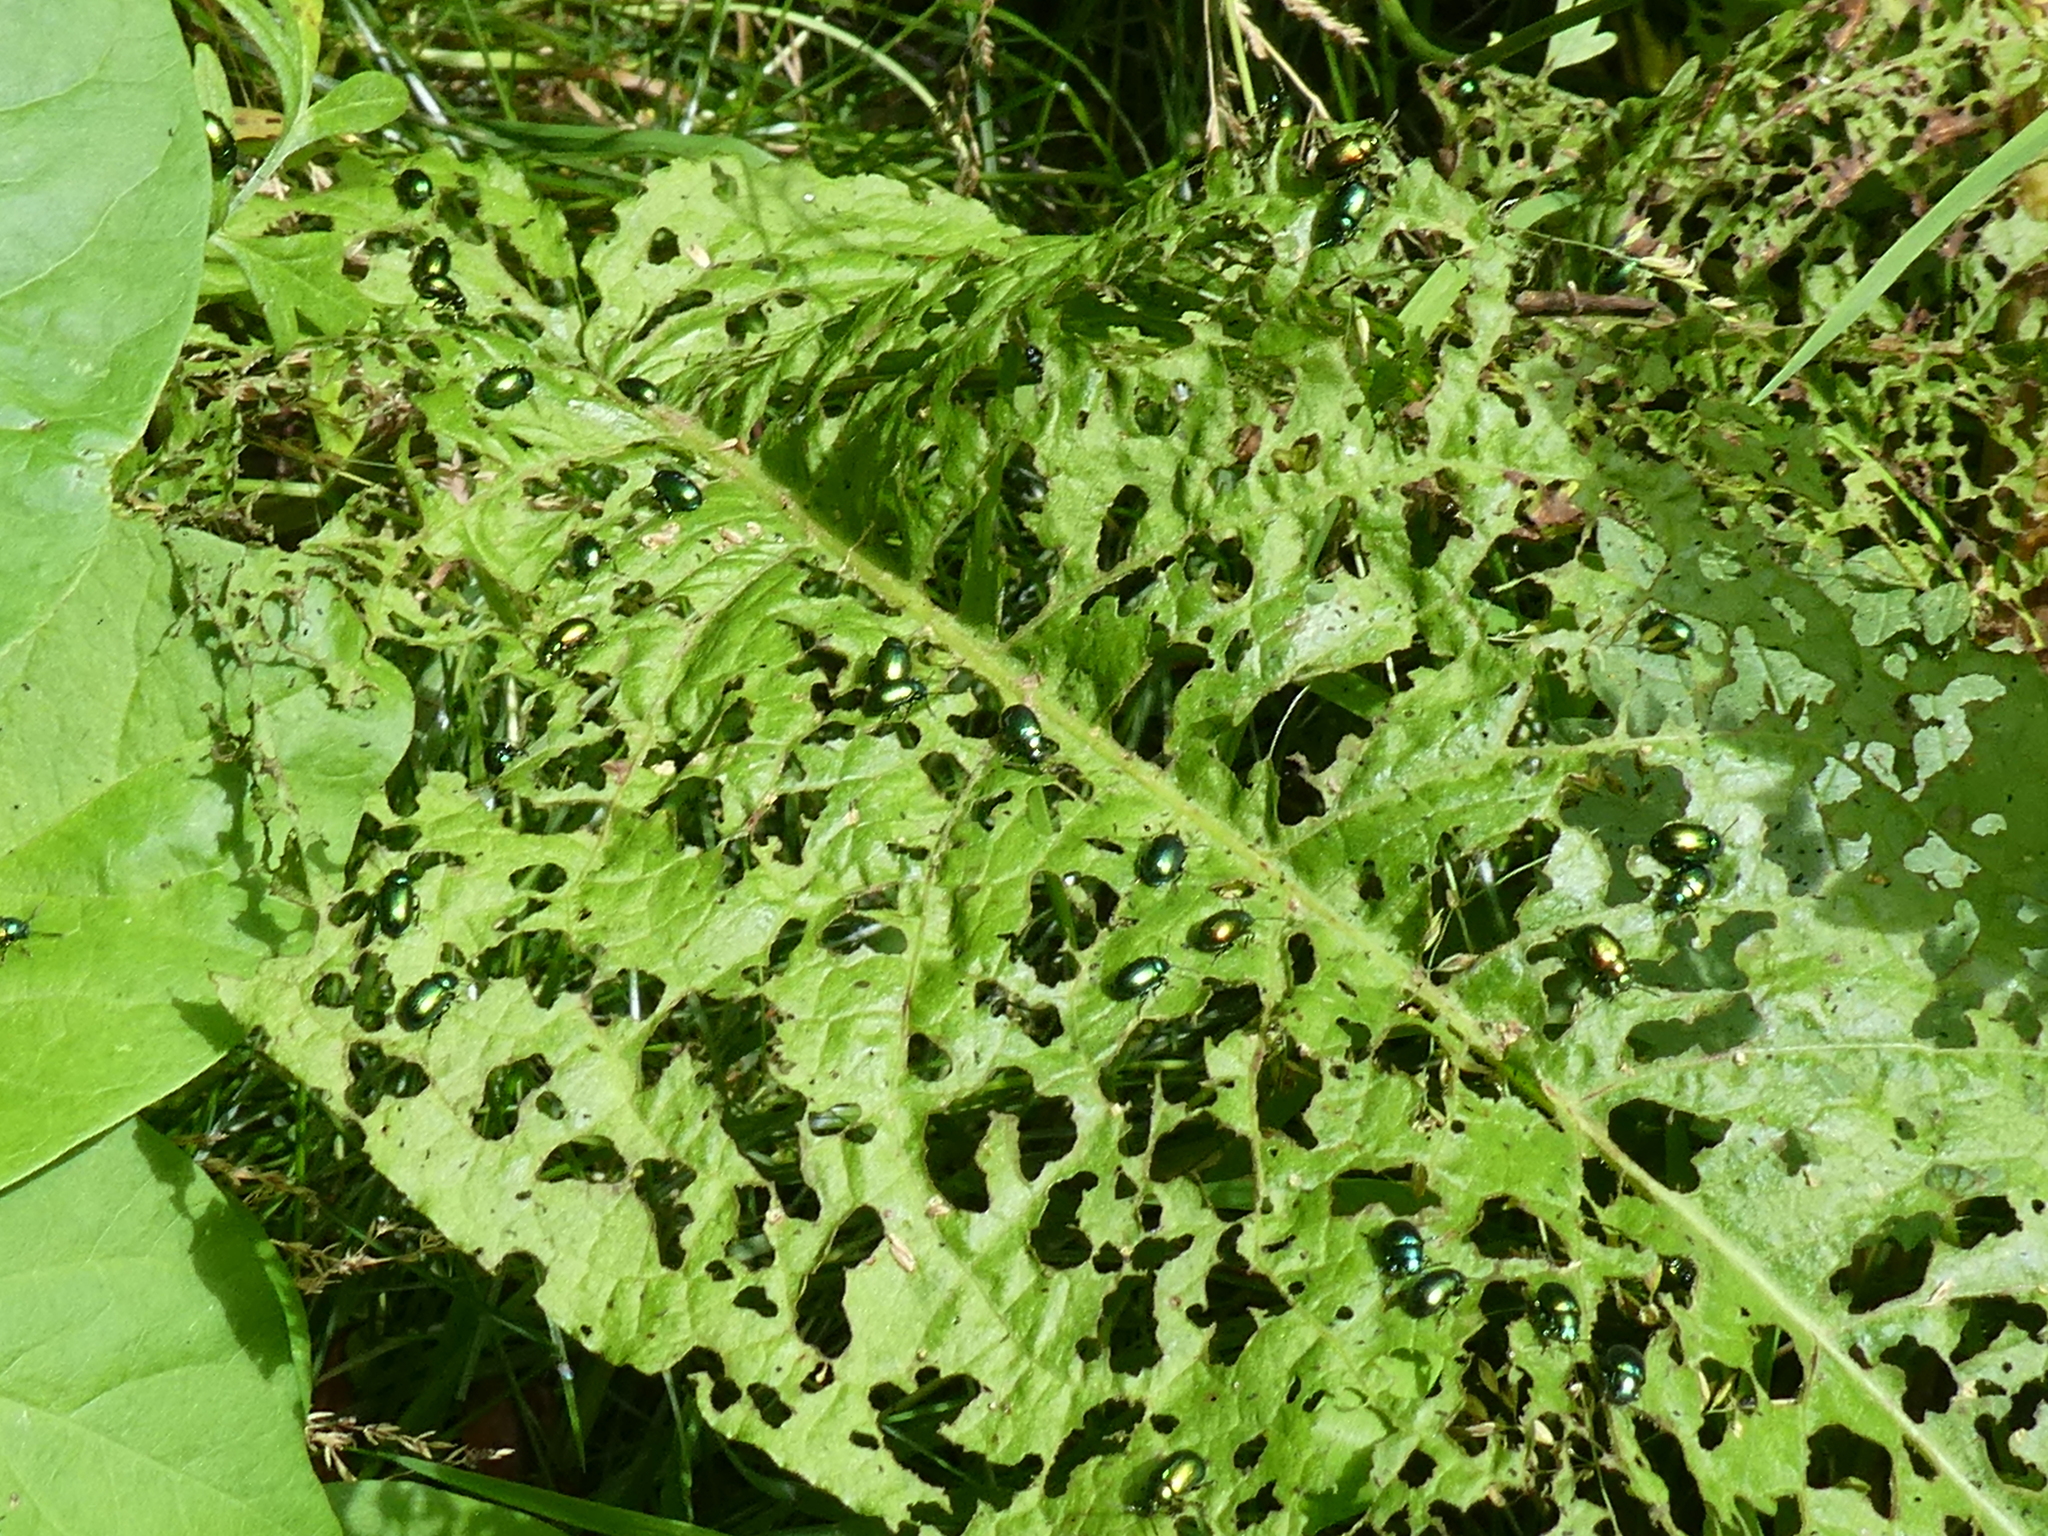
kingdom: Animalia
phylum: Arthropoda
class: Insecta
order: Coleoptera
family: Chrysomelidae
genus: Gastrophysa
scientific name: Gastrophysa viridula
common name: Green dock beetle
